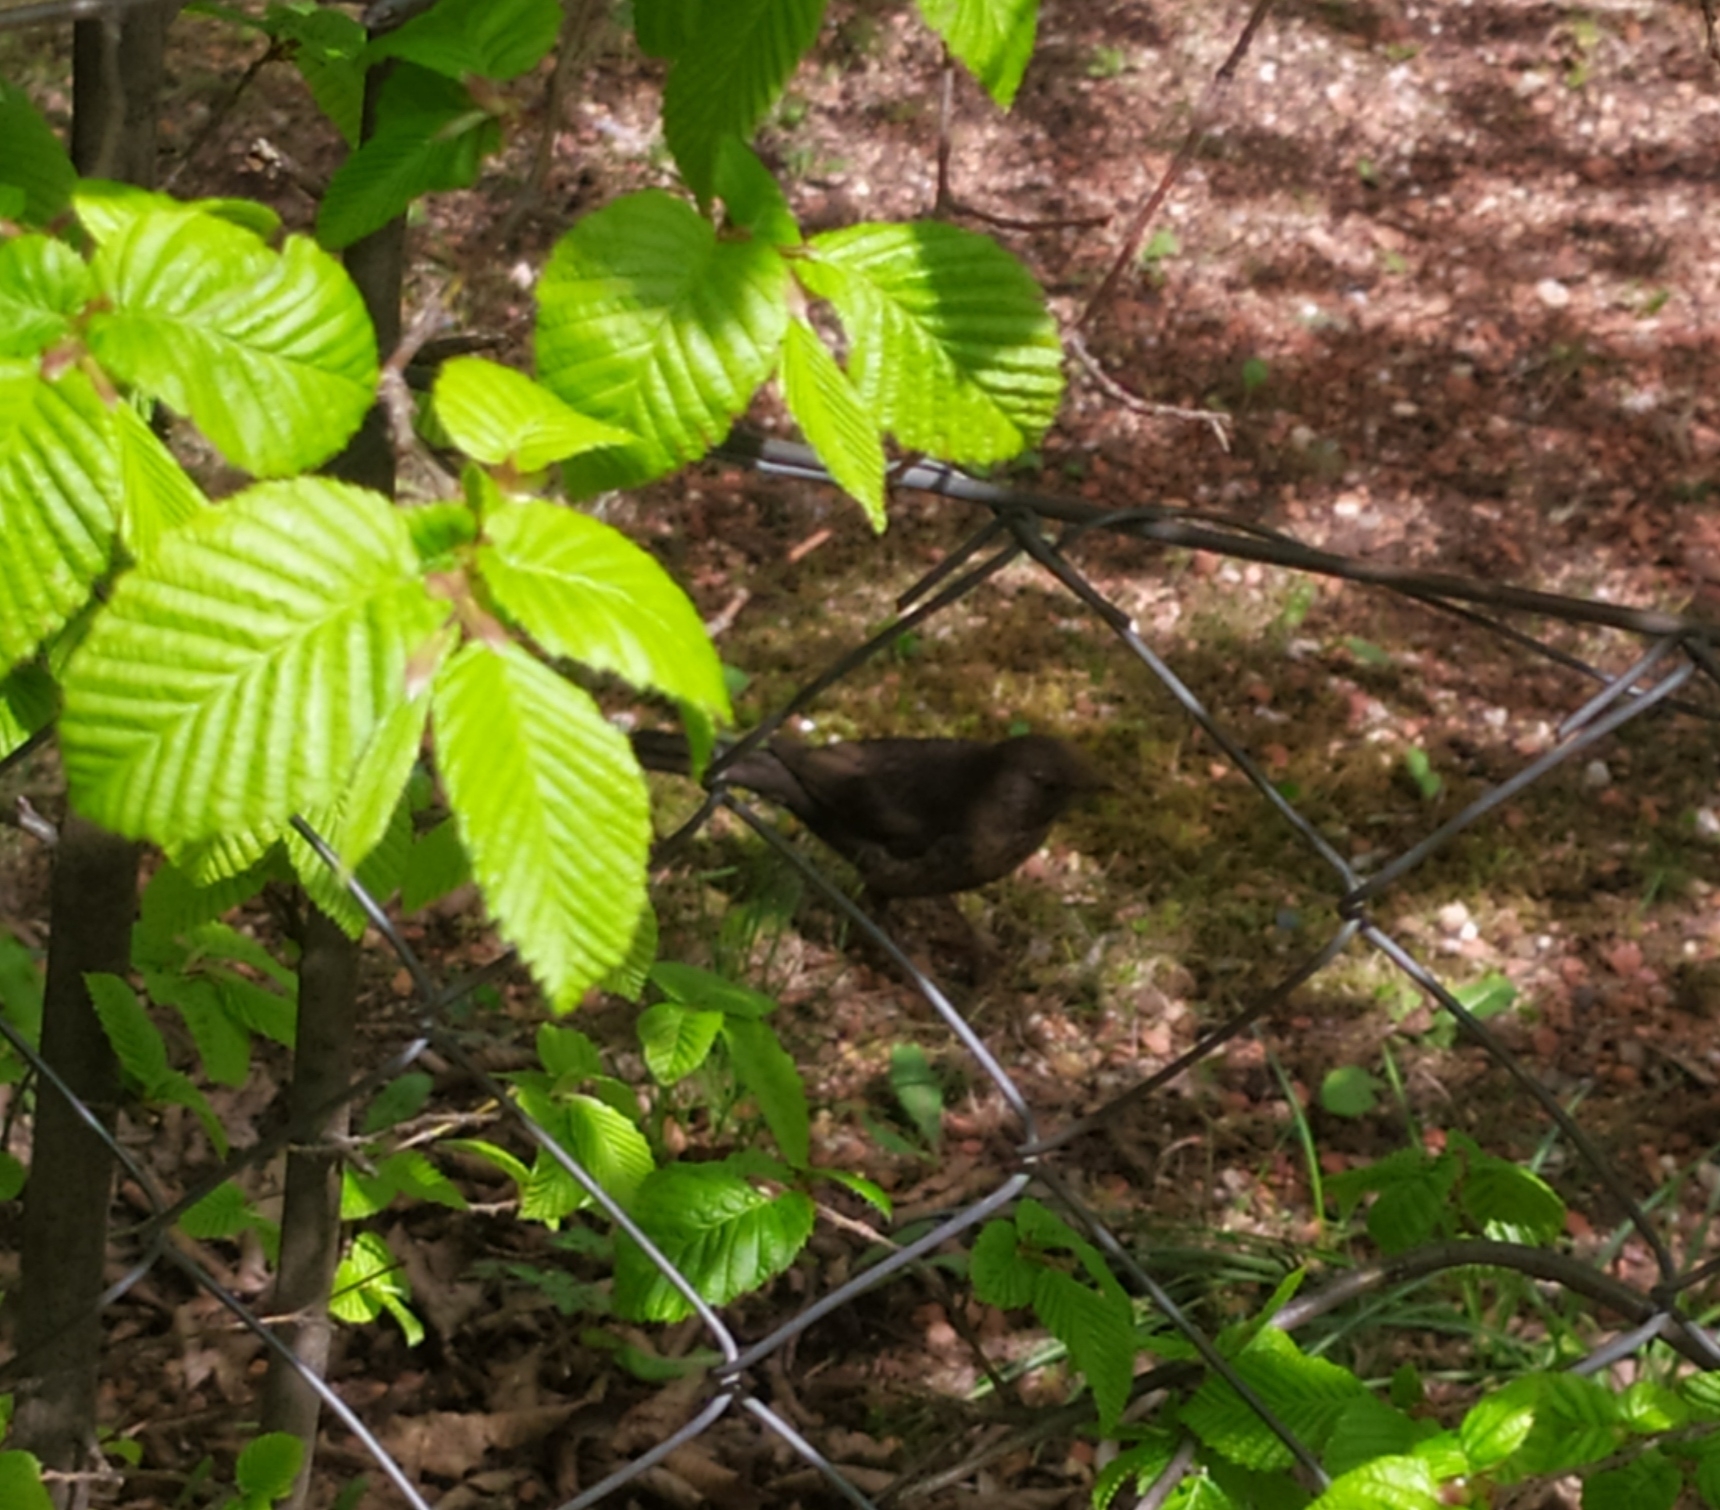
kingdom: Animalia
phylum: Chordata
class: Aves
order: Passeriformes
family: Turdidae
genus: Turdus
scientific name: Turdus merula
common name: Common blackbird
